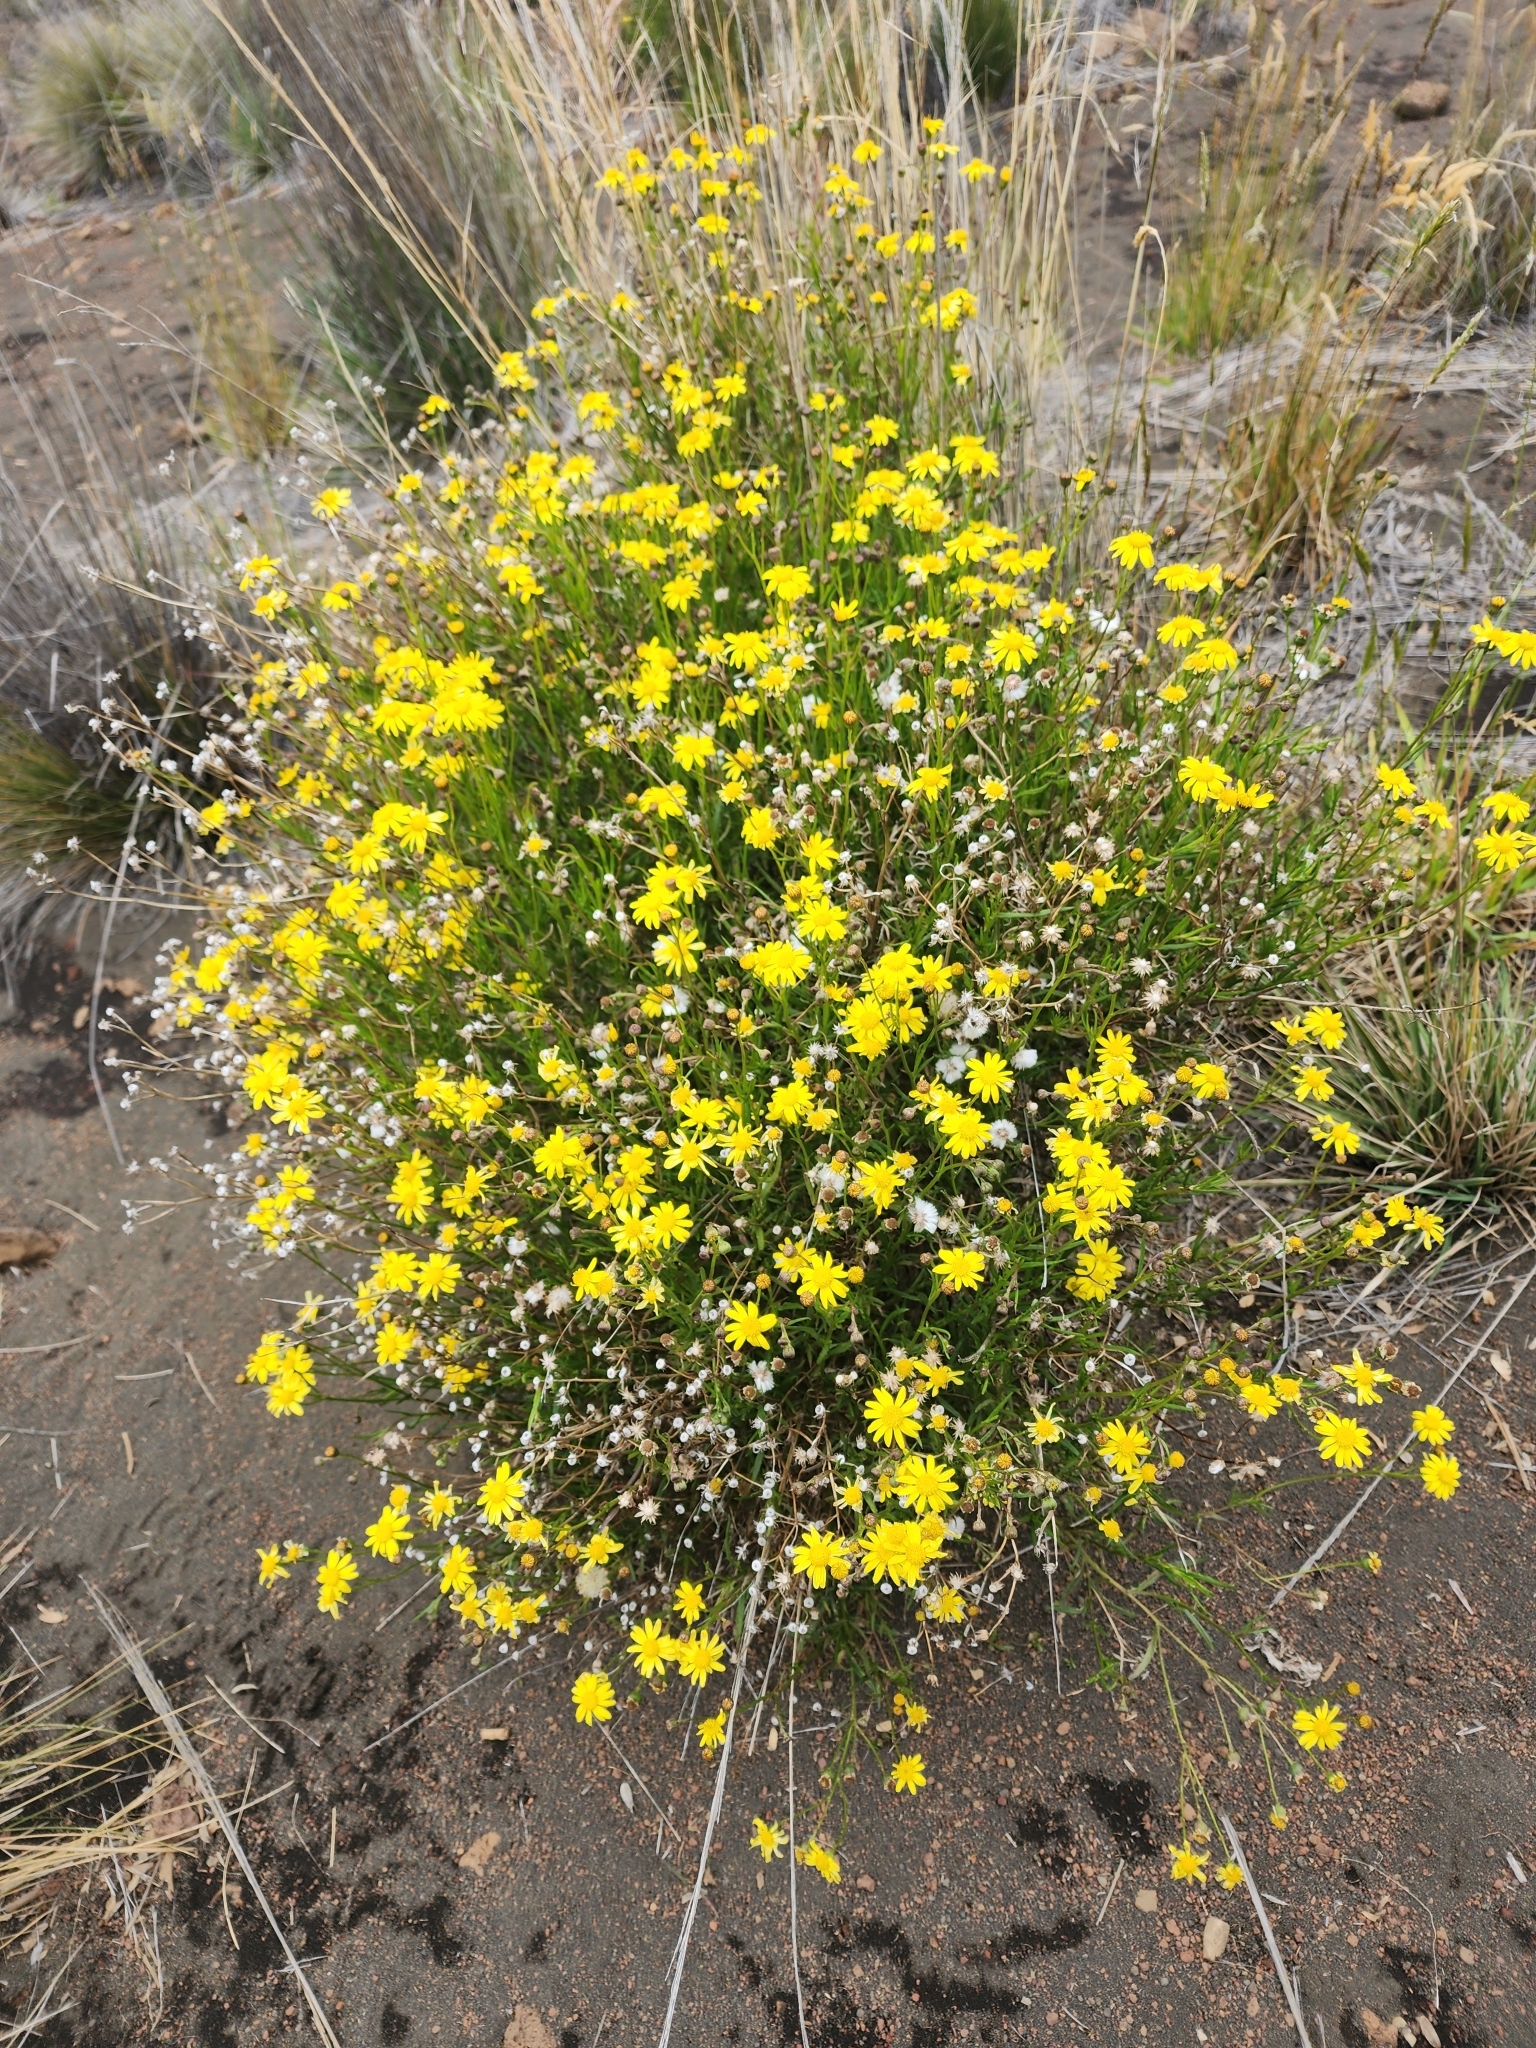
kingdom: Plantae
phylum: Tracheophyta
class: Magnoliopsida
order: Asterales
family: Asteraceae
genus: Senecio
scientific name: Senecio madagascariensis
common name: Madagascar ragwort
